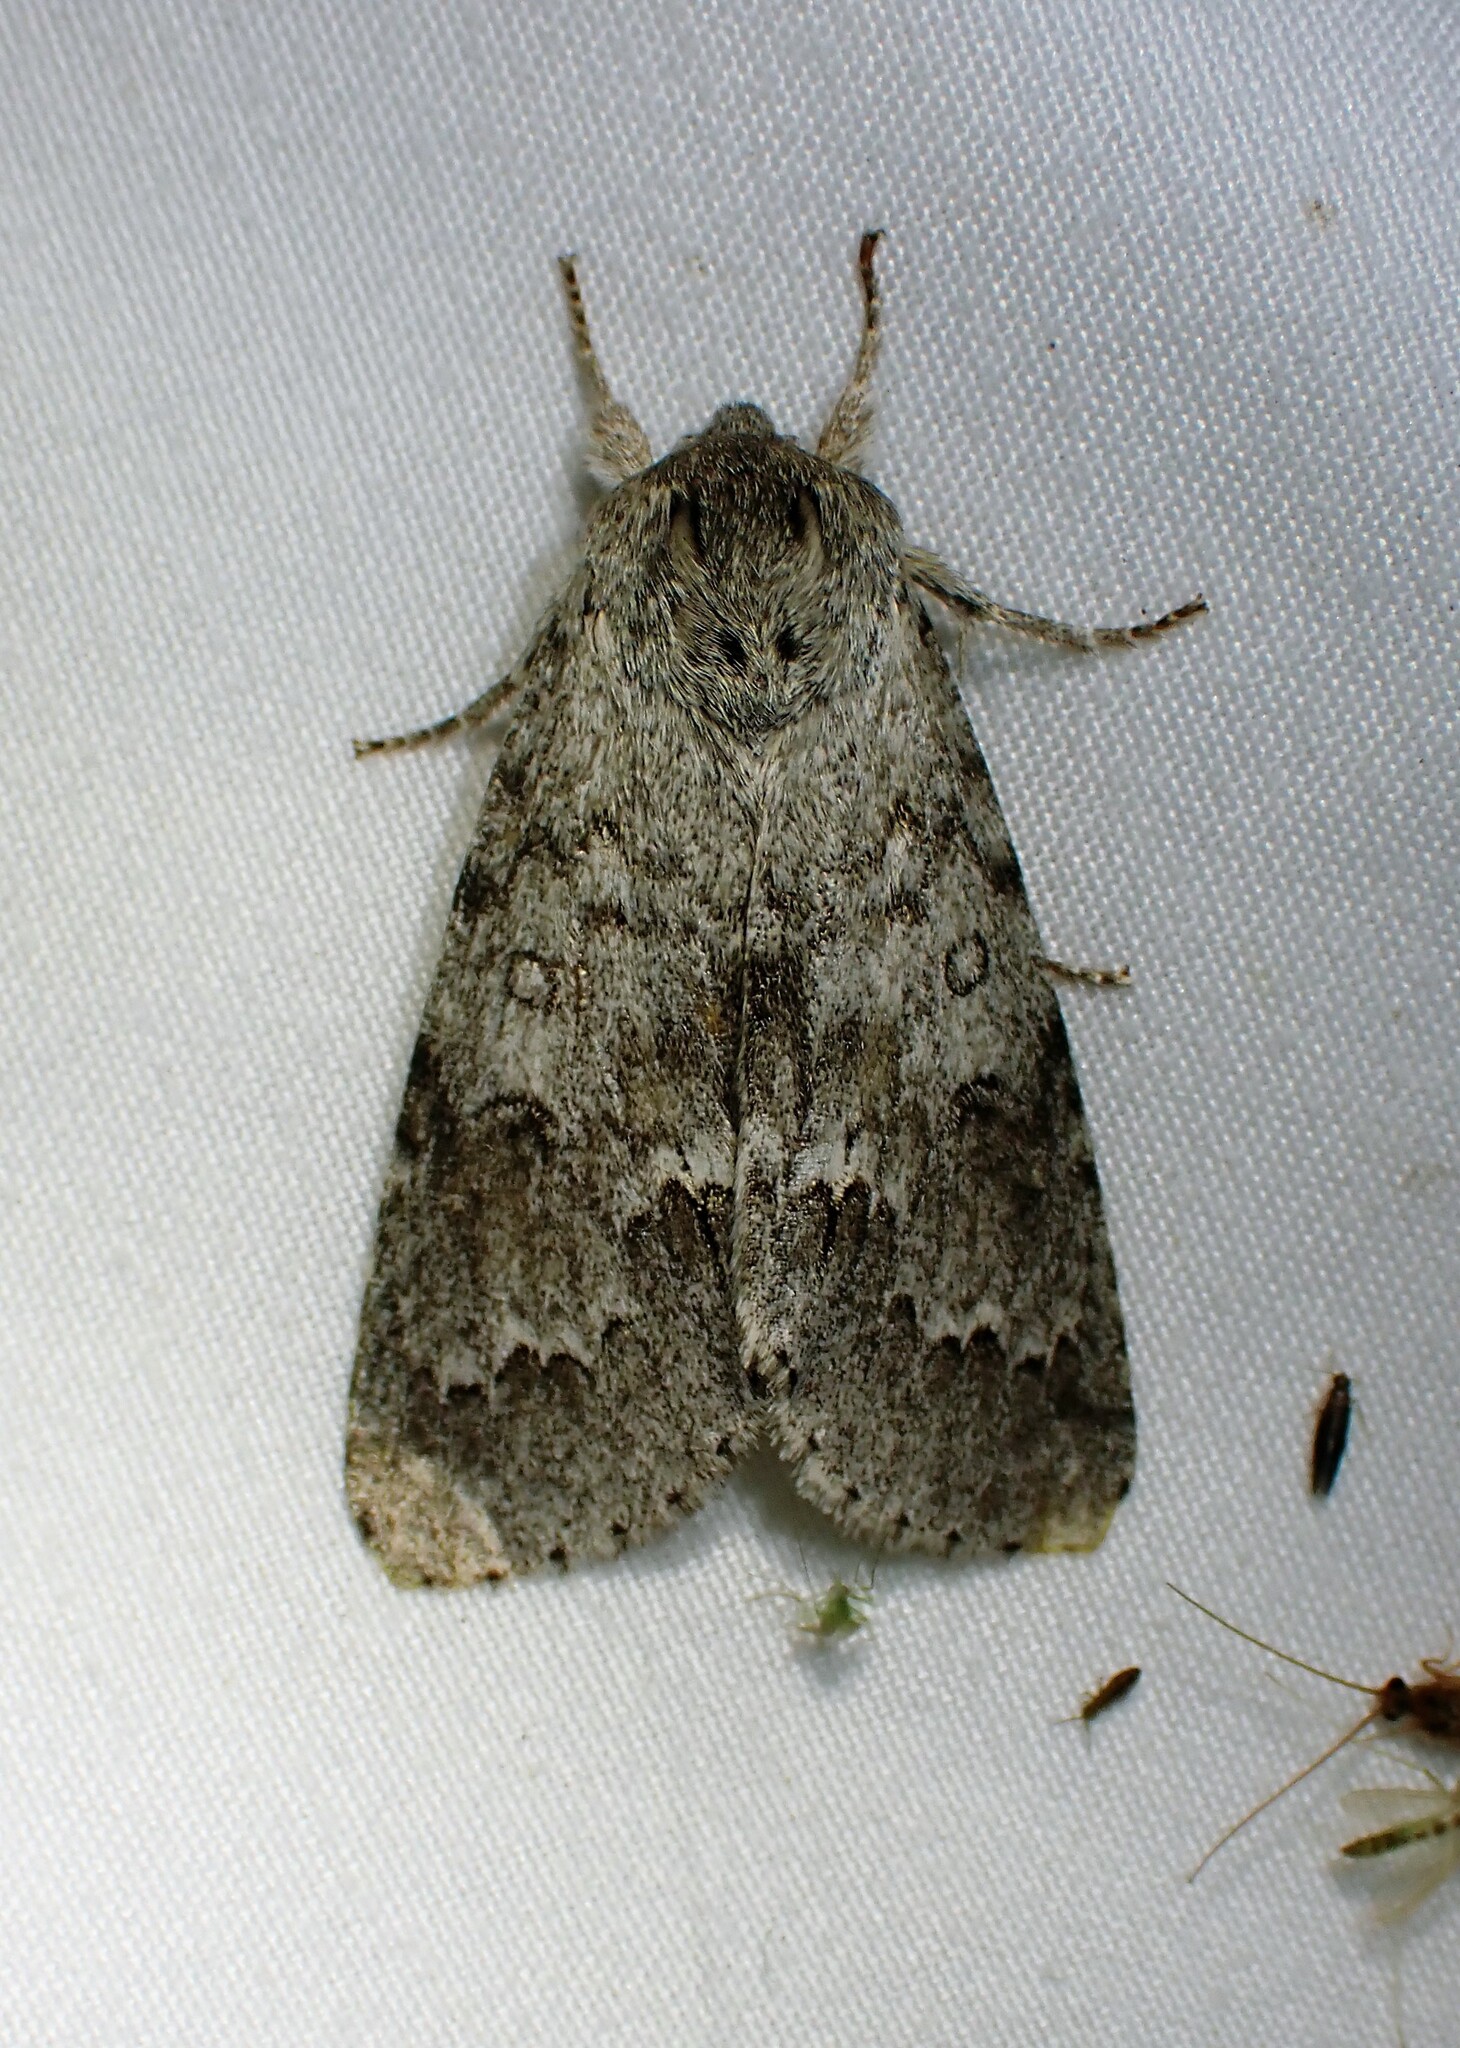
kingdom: Animalia
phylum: Arthropoda
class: Insecta
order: Lepidoptera
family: Noctuidae
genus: Acronicta
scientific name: Acronicta insita
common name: Large gray dagger
